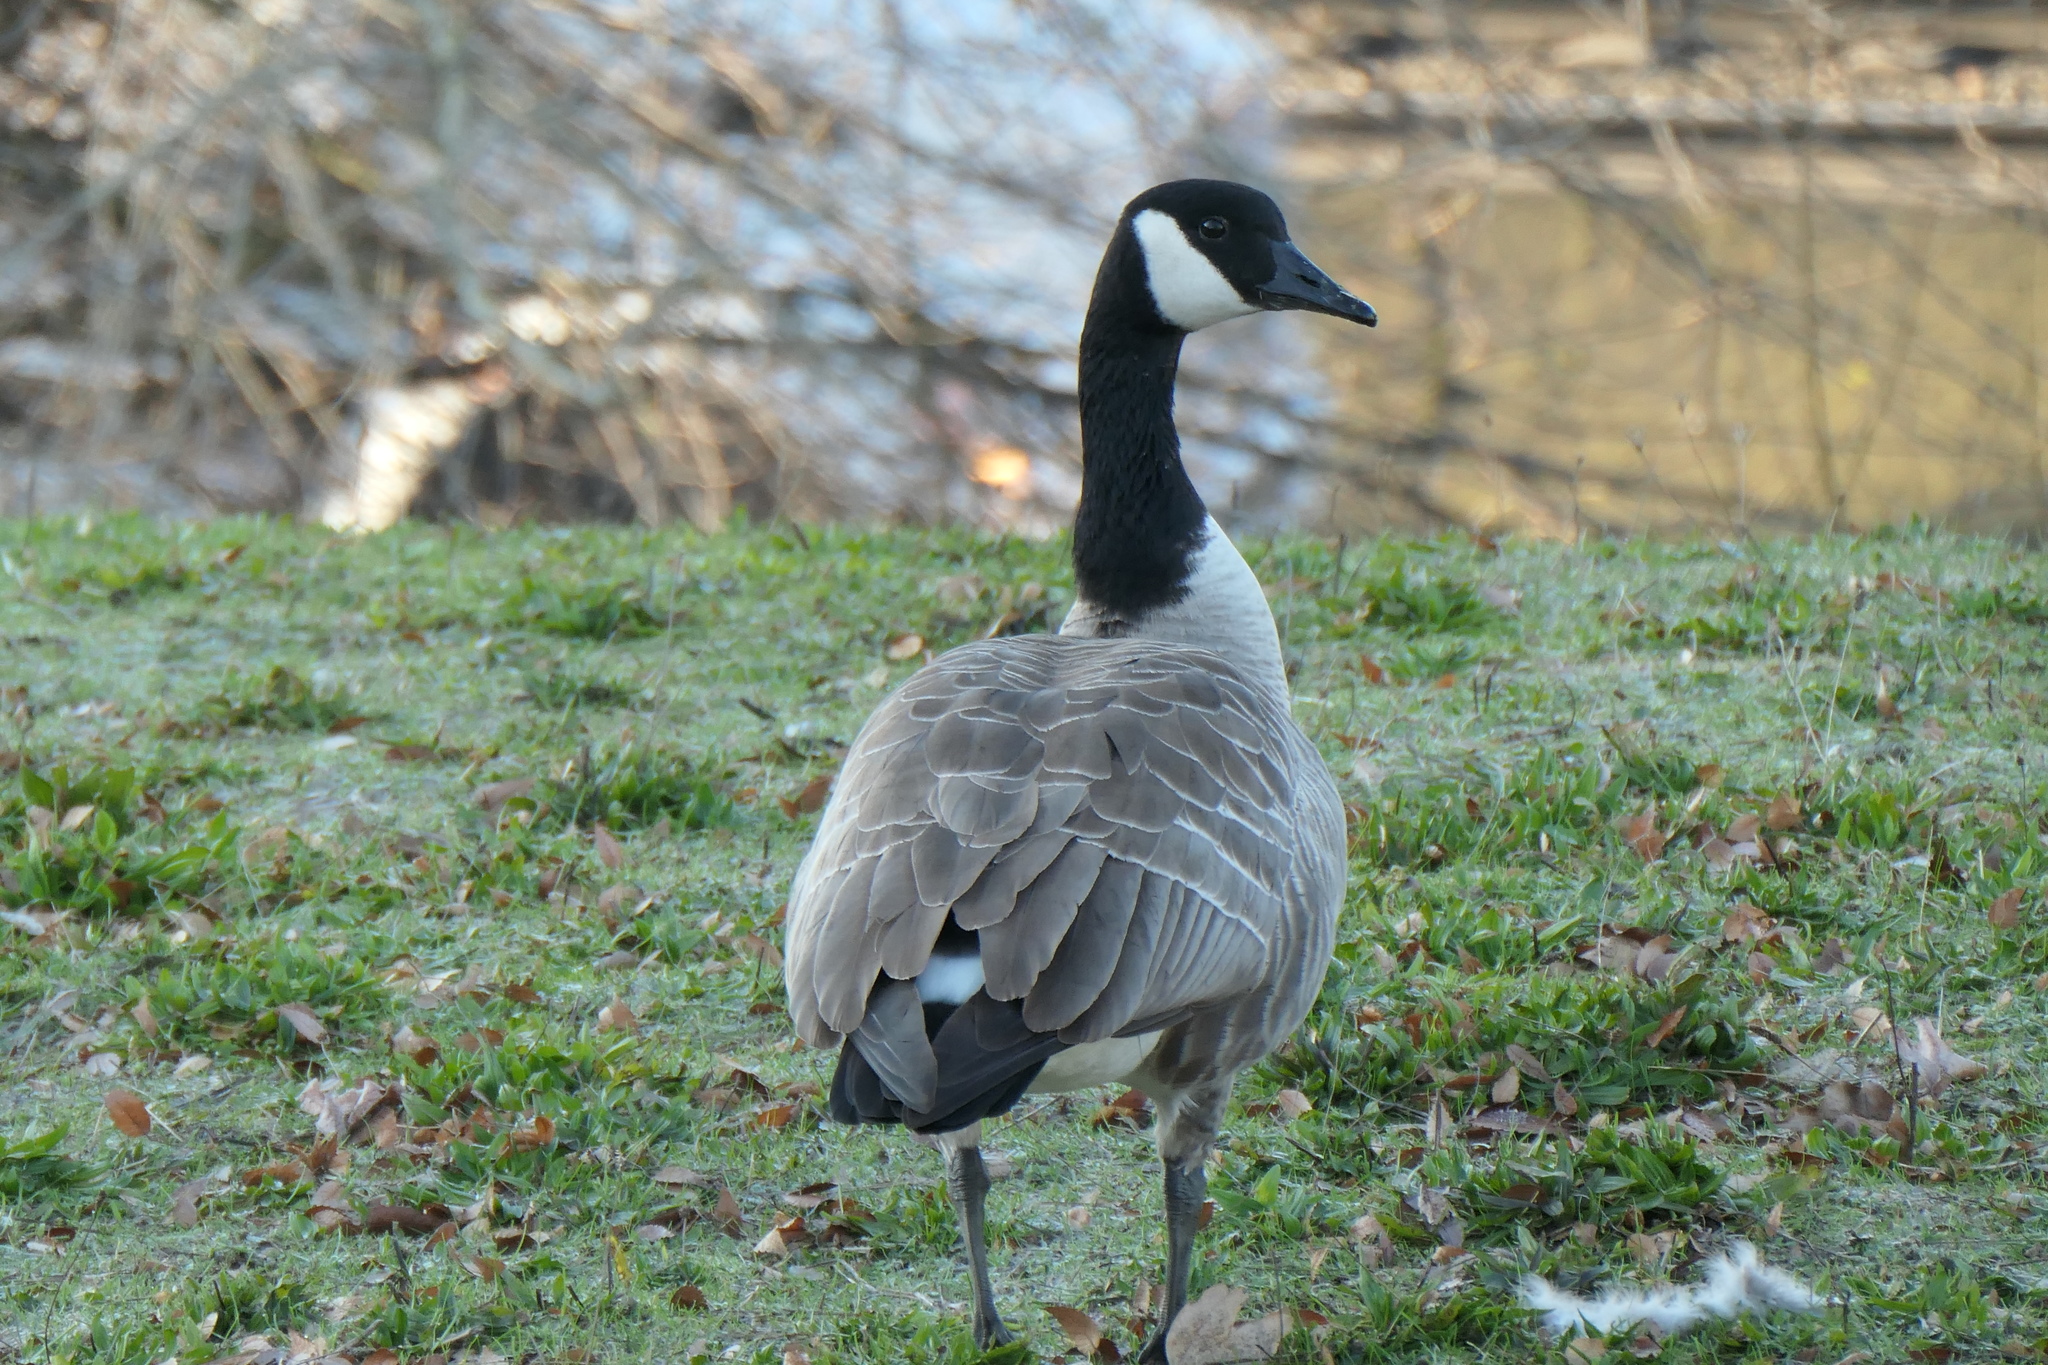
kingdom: Animalia
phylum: Chordata
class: Aves
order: Anseriformes
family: Anatidae
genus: Branta
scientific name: Branta canadensis
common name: Canada goose
